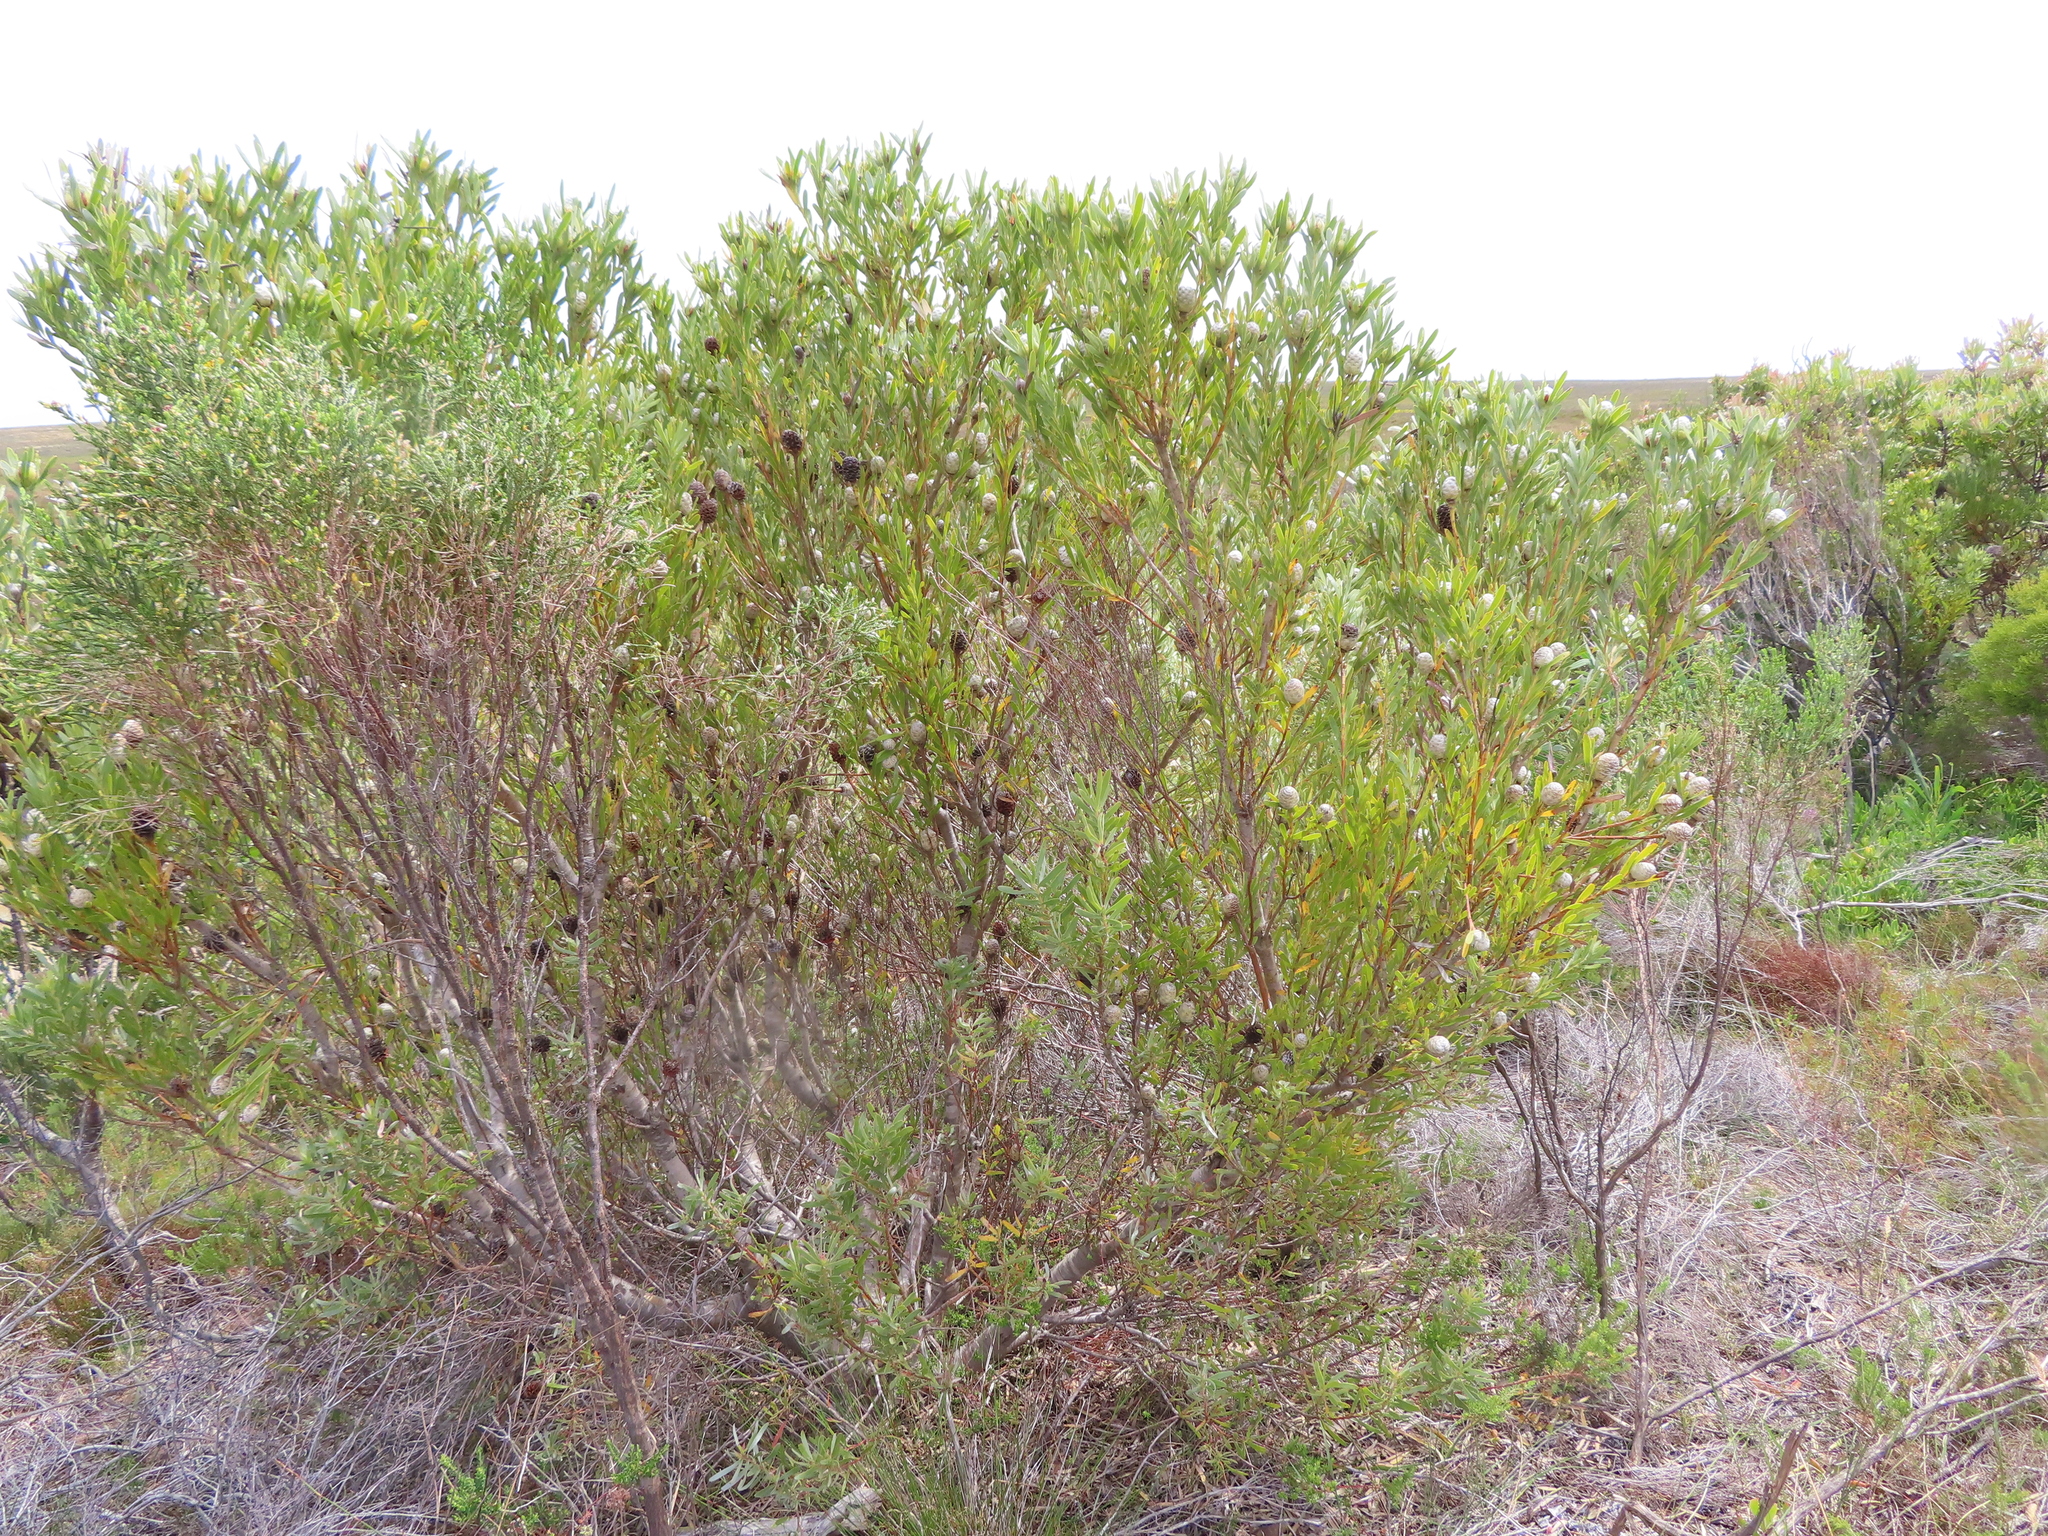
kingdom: Plantae
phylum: Tracheophyta
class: Magnoliopsida
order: Proteales
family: Proteaceae
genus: Leucadendron
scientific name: Leucadendron meridianum
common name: Limestone conebush
